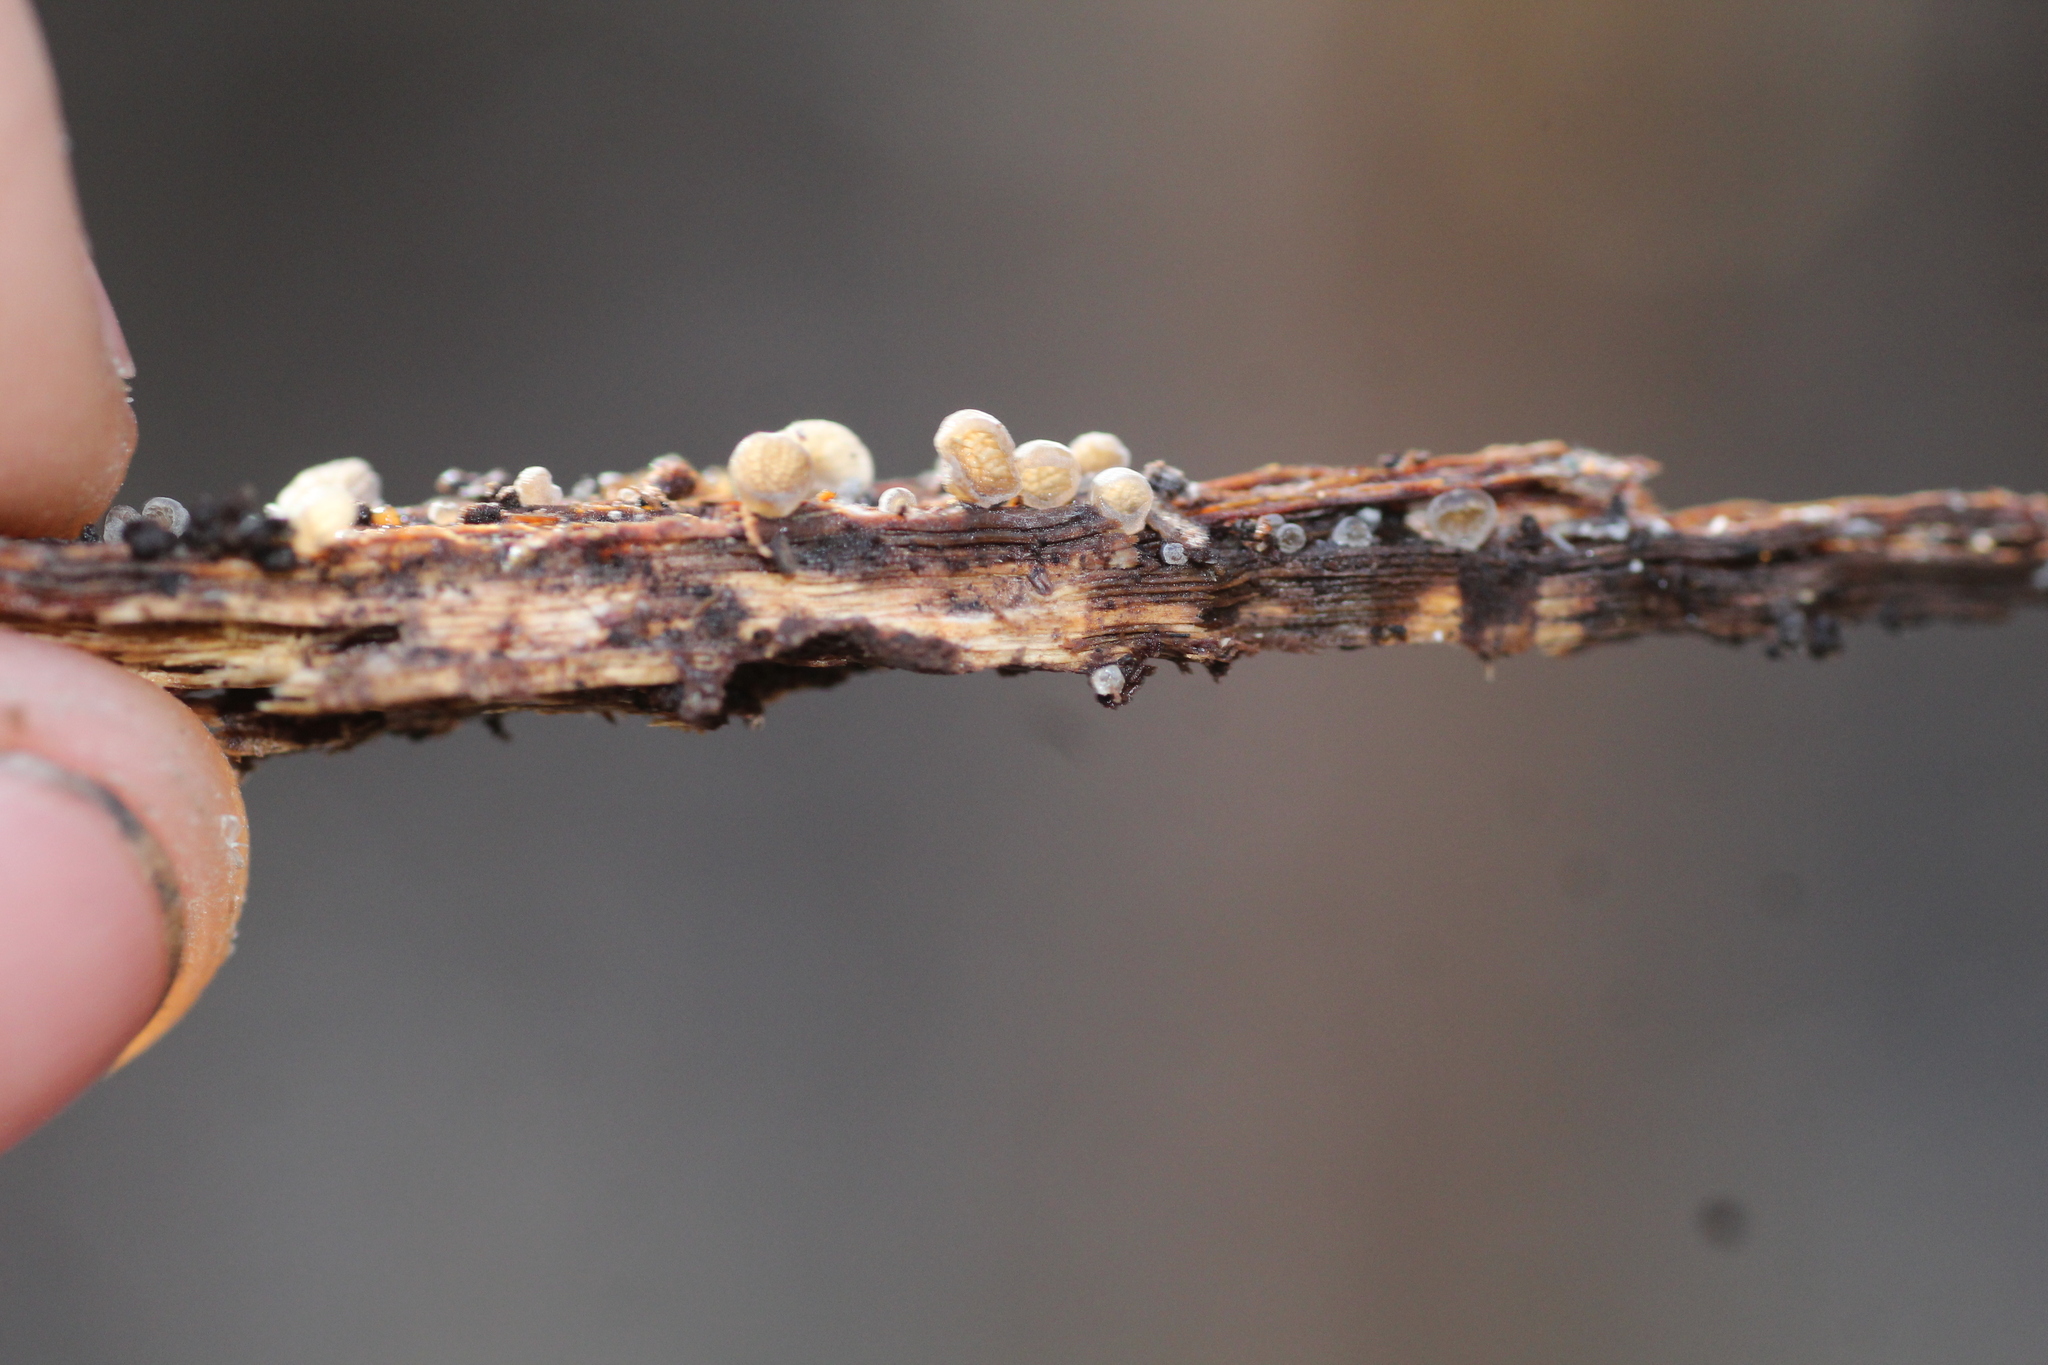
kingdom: Fungi
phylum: Basidiomycota
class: Agaricomycetes
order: Agaricales
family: Pleurotaceae
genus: Resupinatus
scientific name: Resupinatus merulioides
